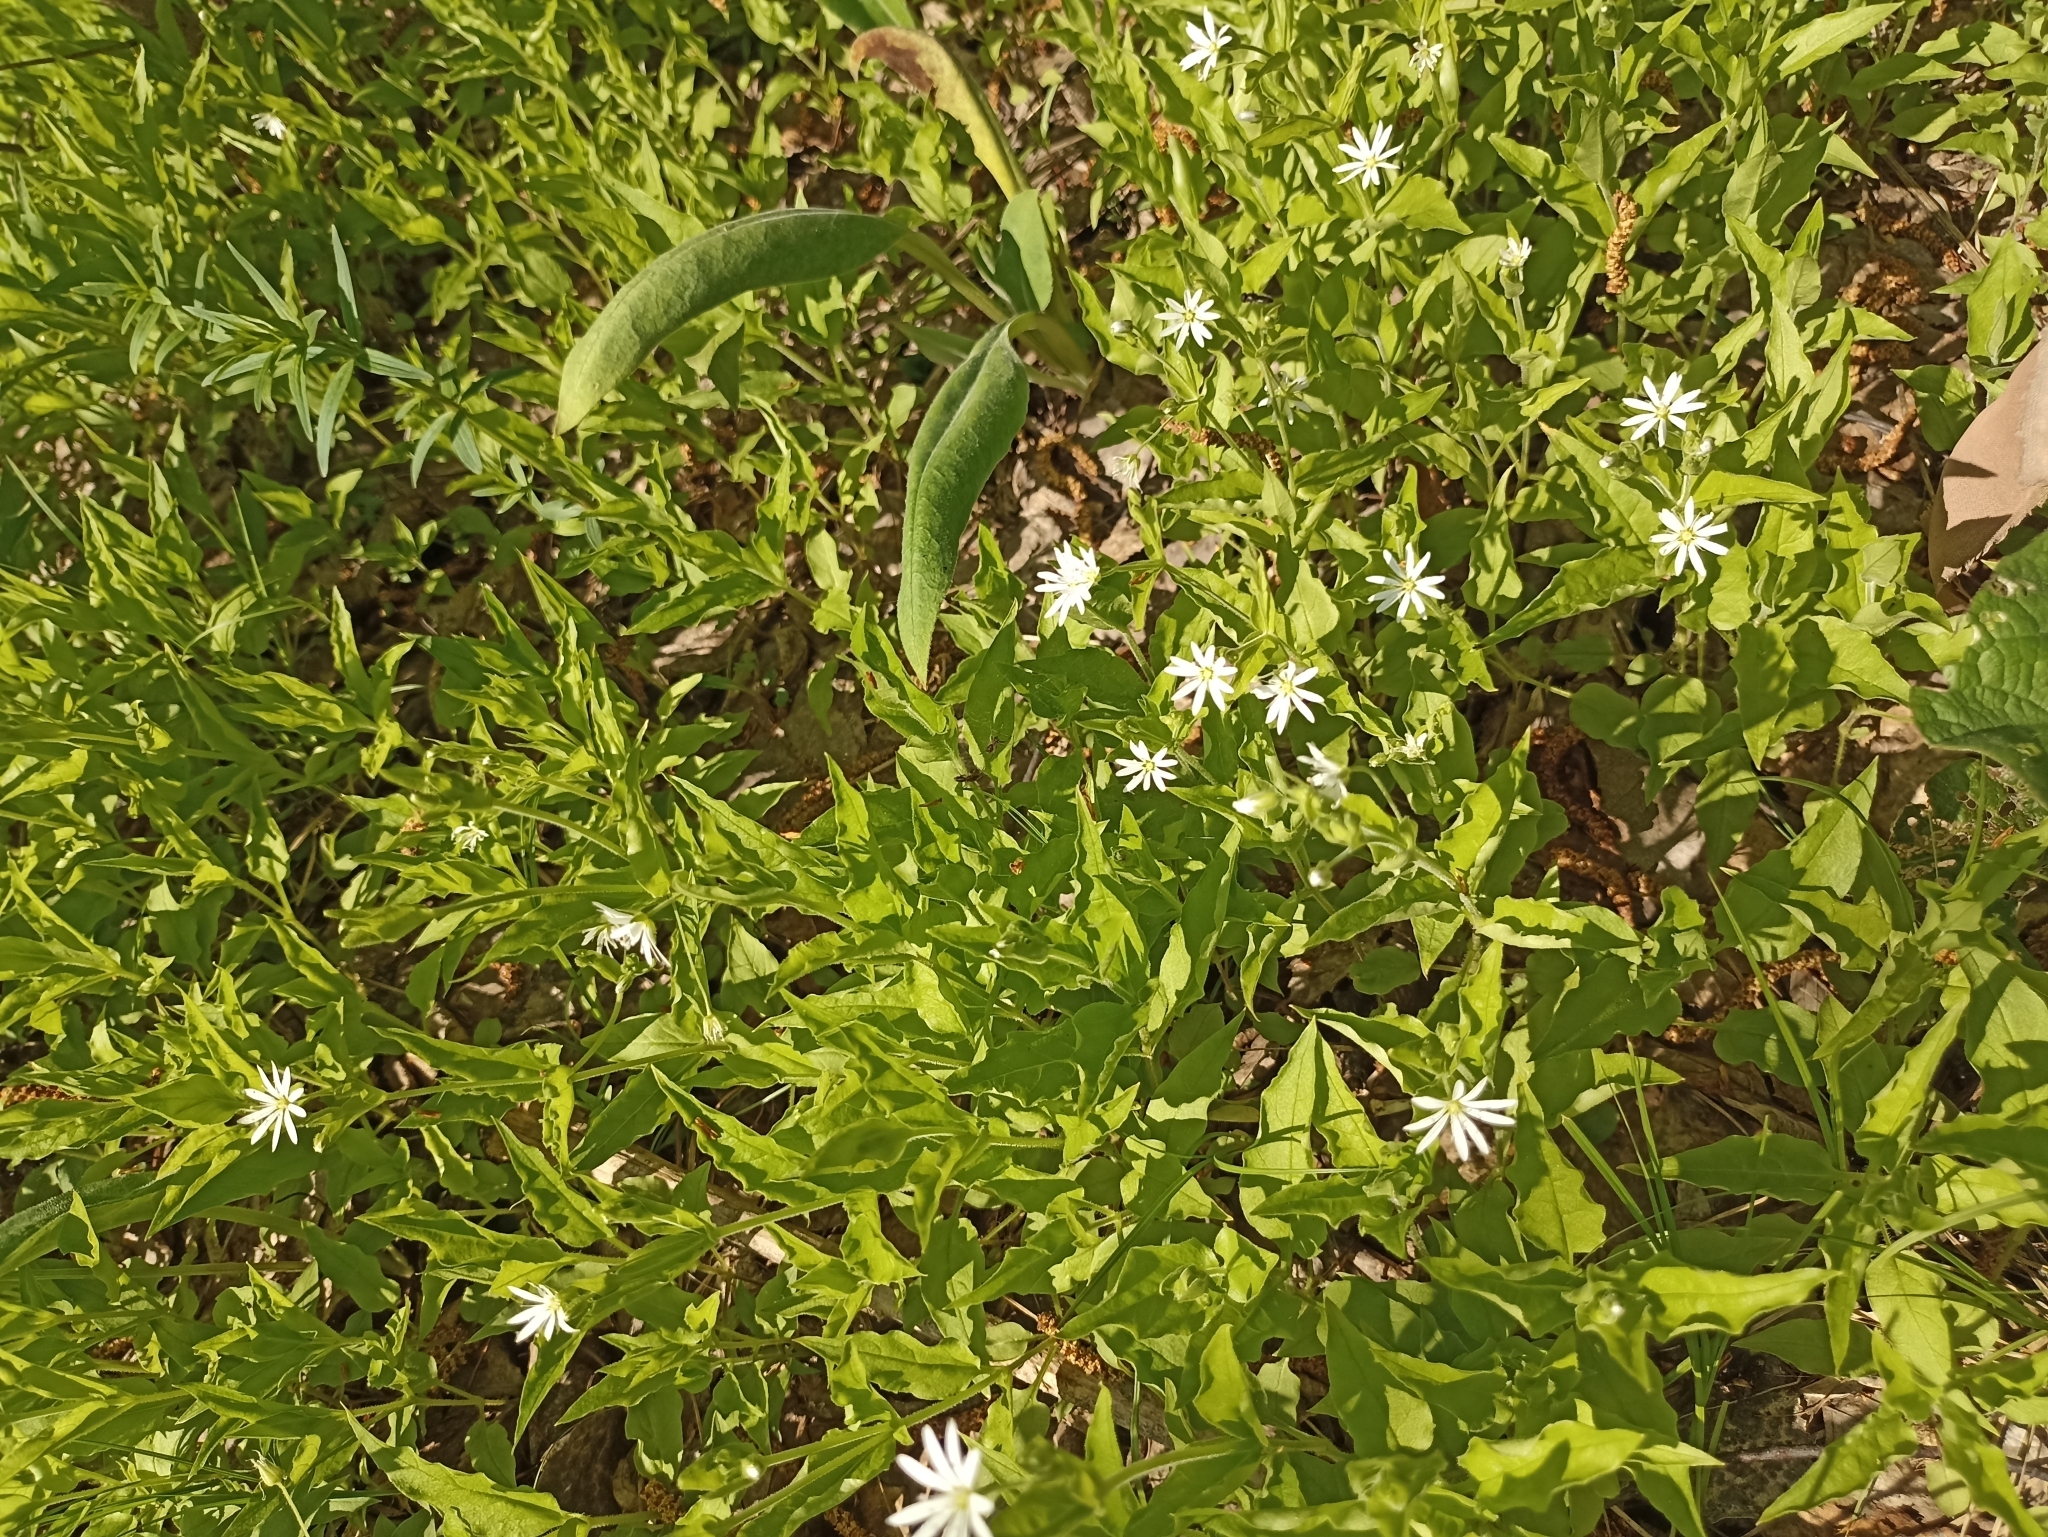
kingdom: Plantae
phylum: Tracheophyta
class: Magnoliopsida
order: Caryophyllales
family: Caryophyllaceae
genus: Stellaria
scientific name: Stellaria bungeana
